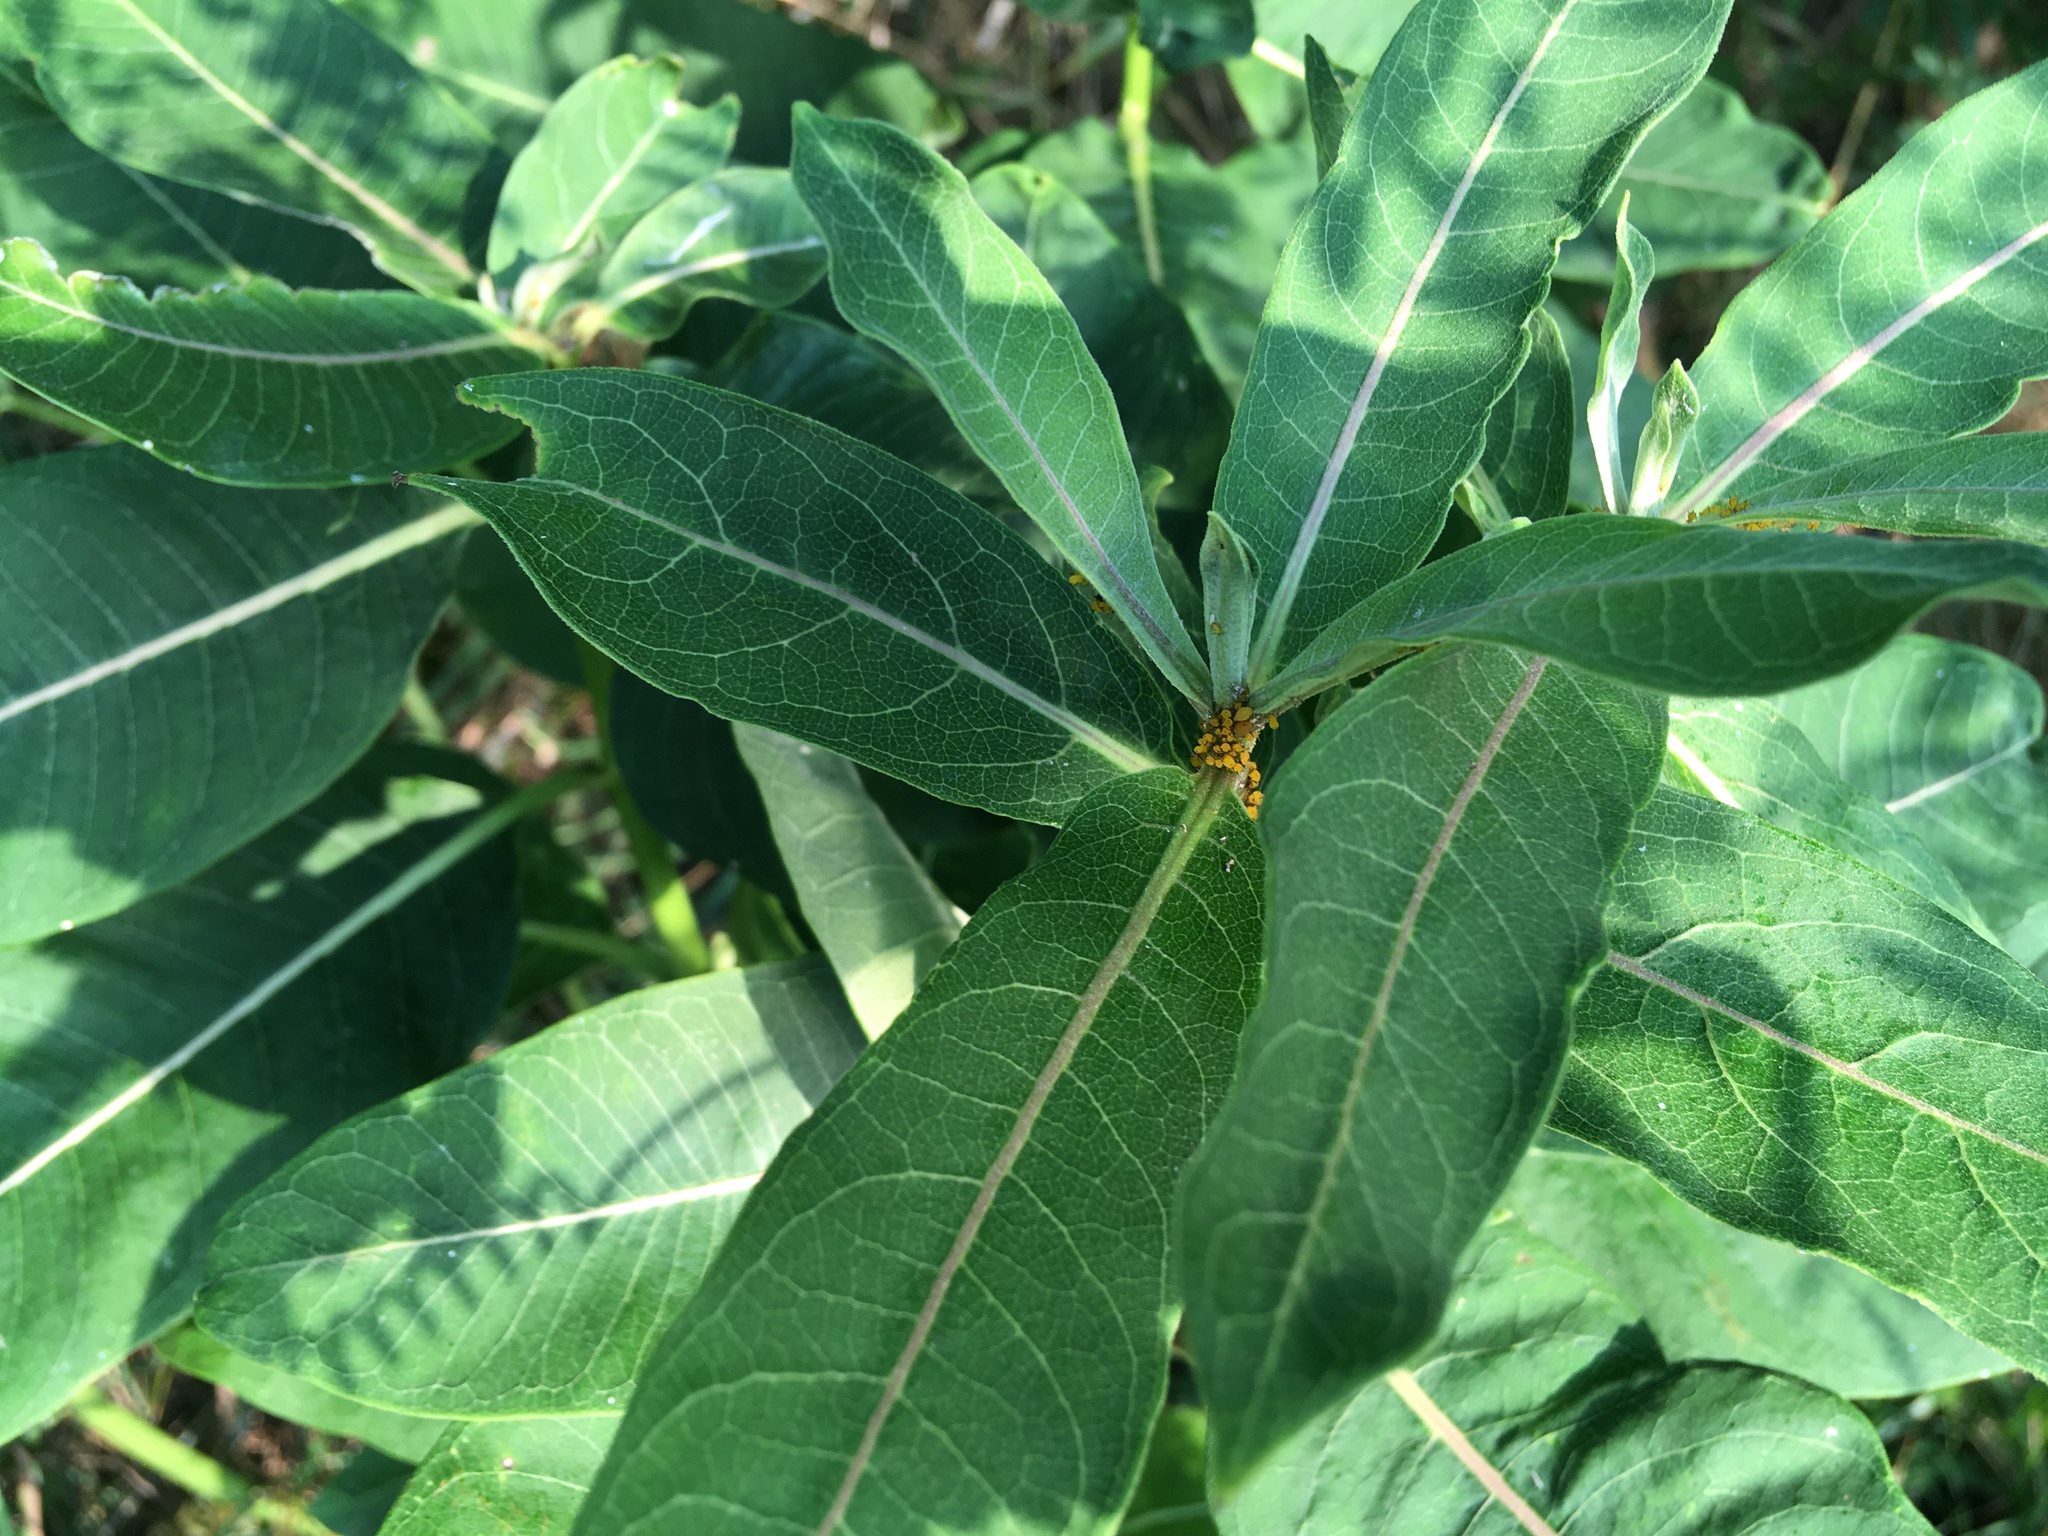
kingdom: Plantae
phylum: Tracheophyta
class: Magnoliopsida
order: Gentianales
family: Apocynaceae
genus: Asclepias
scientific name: Asclepias syriaca
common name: Common milkweed
